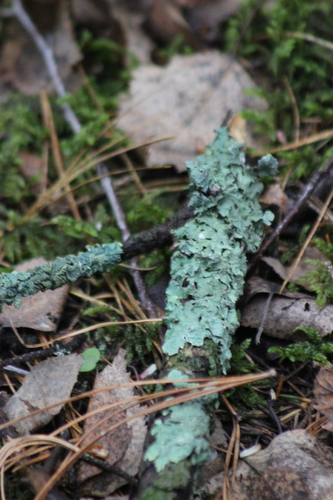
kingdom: Fungi
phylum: Ascomycota
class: Lecanoromycetes
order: Lecanorales
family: Parmeliaceae
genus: Parmelia
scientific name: Parmelia sulcata
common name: Netted shield lichen
